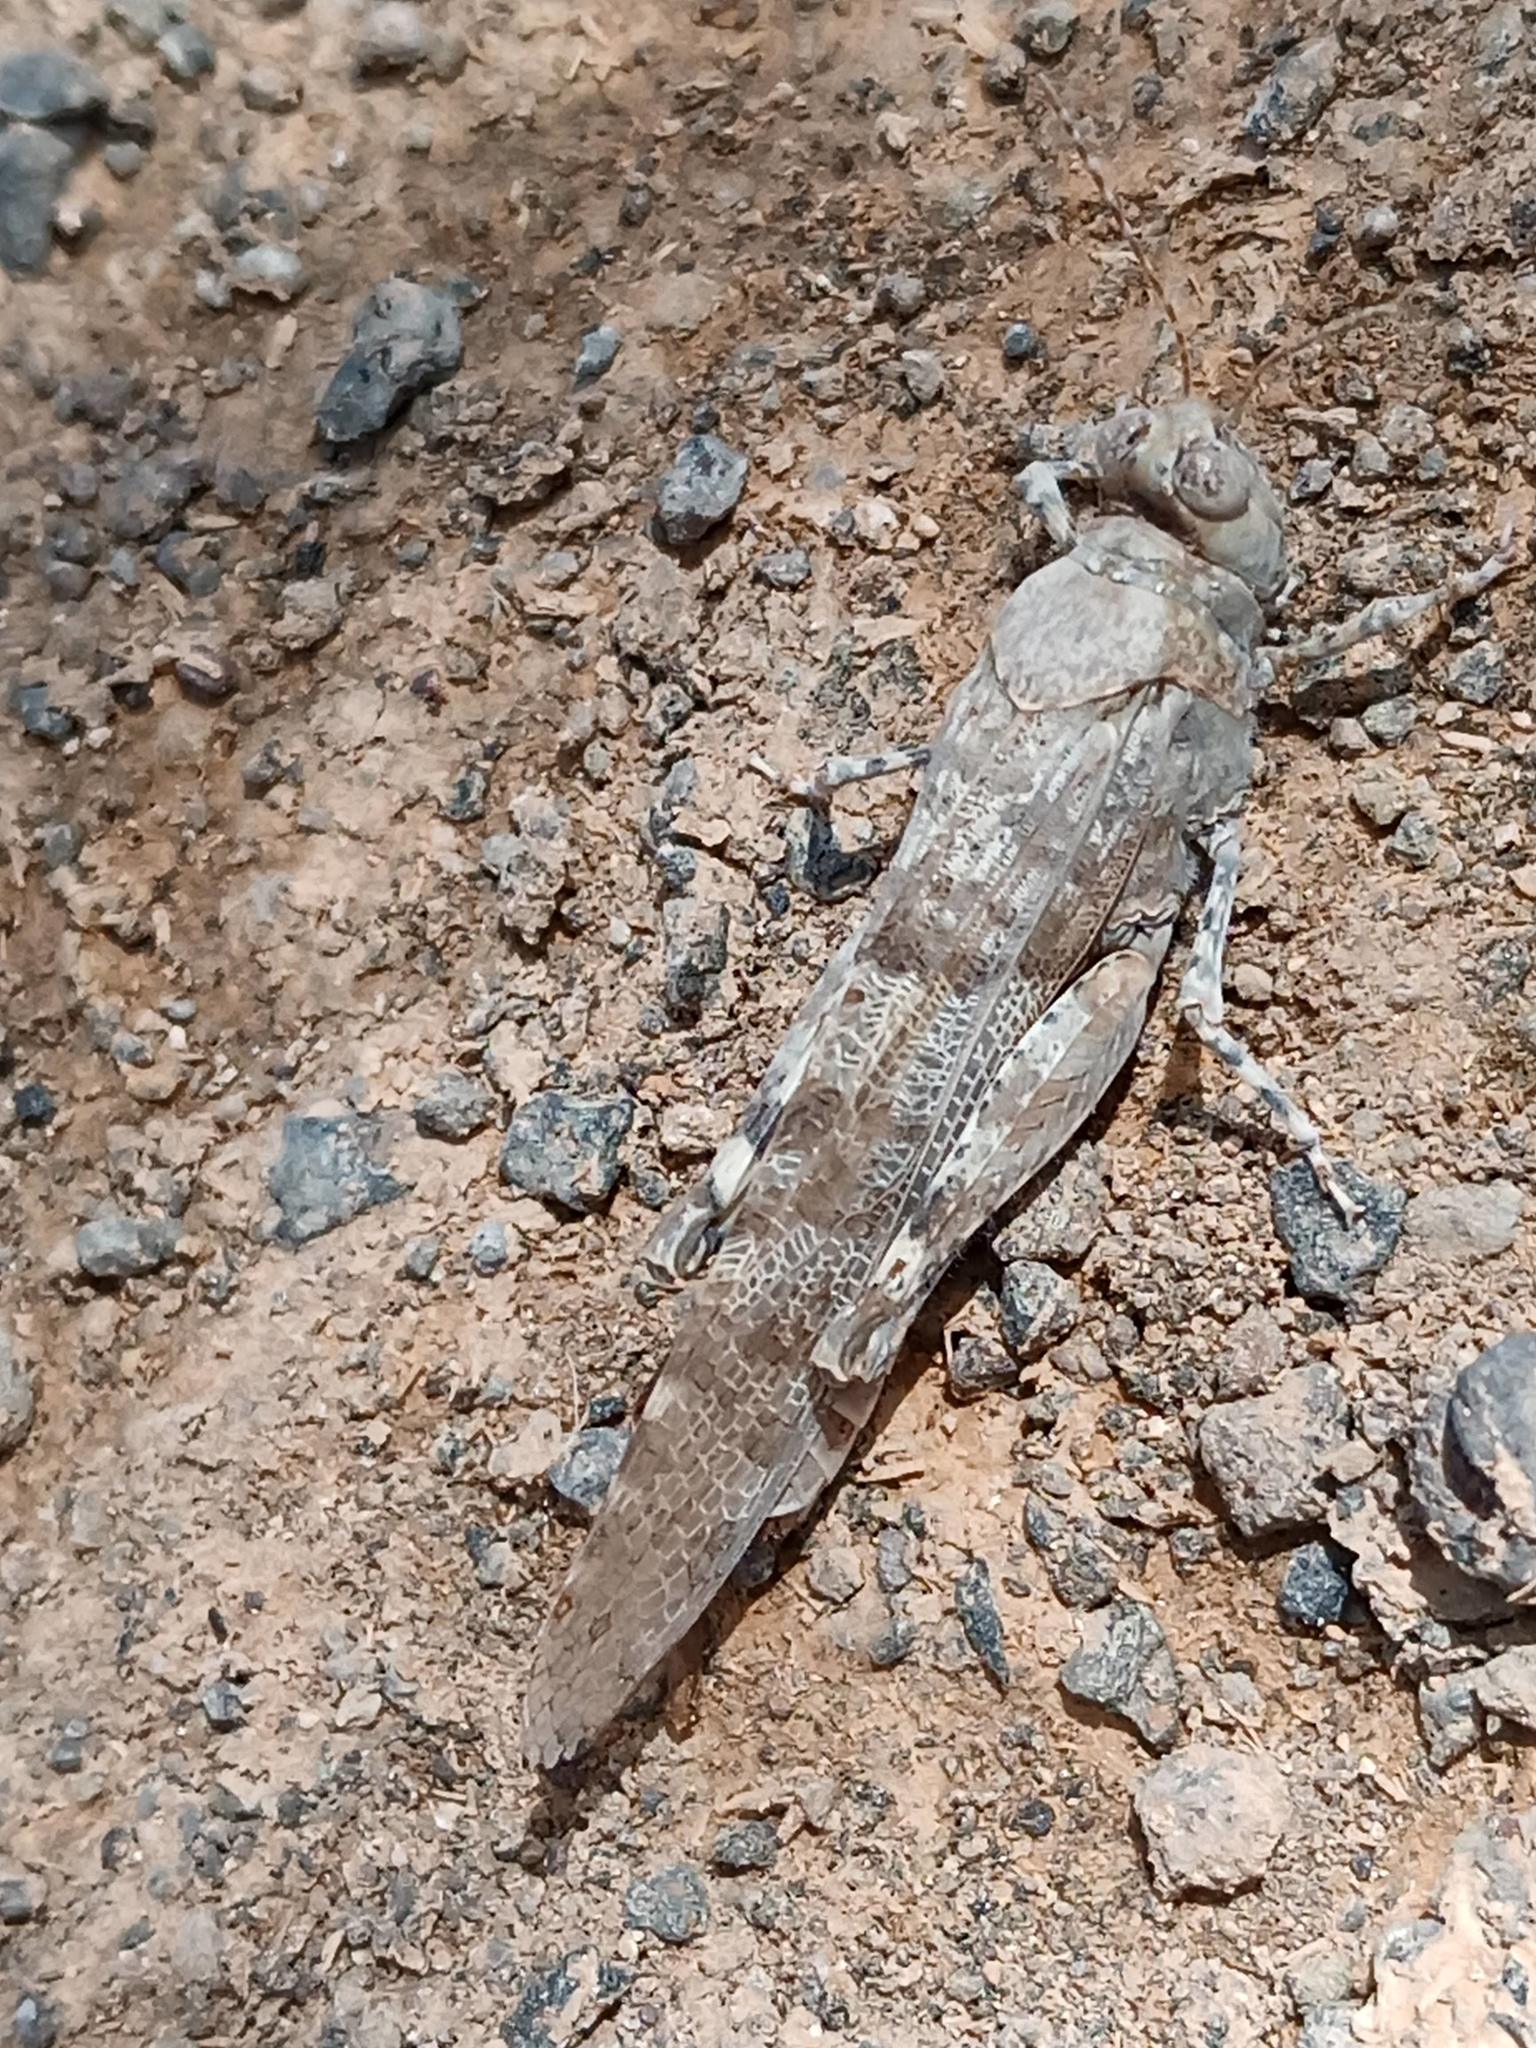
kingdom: Animalia
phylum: Arthropoda
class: Insecta
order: Orthoptera
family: Acrididae
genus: Sphingonotus
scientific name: Sphingonotus rubescens
